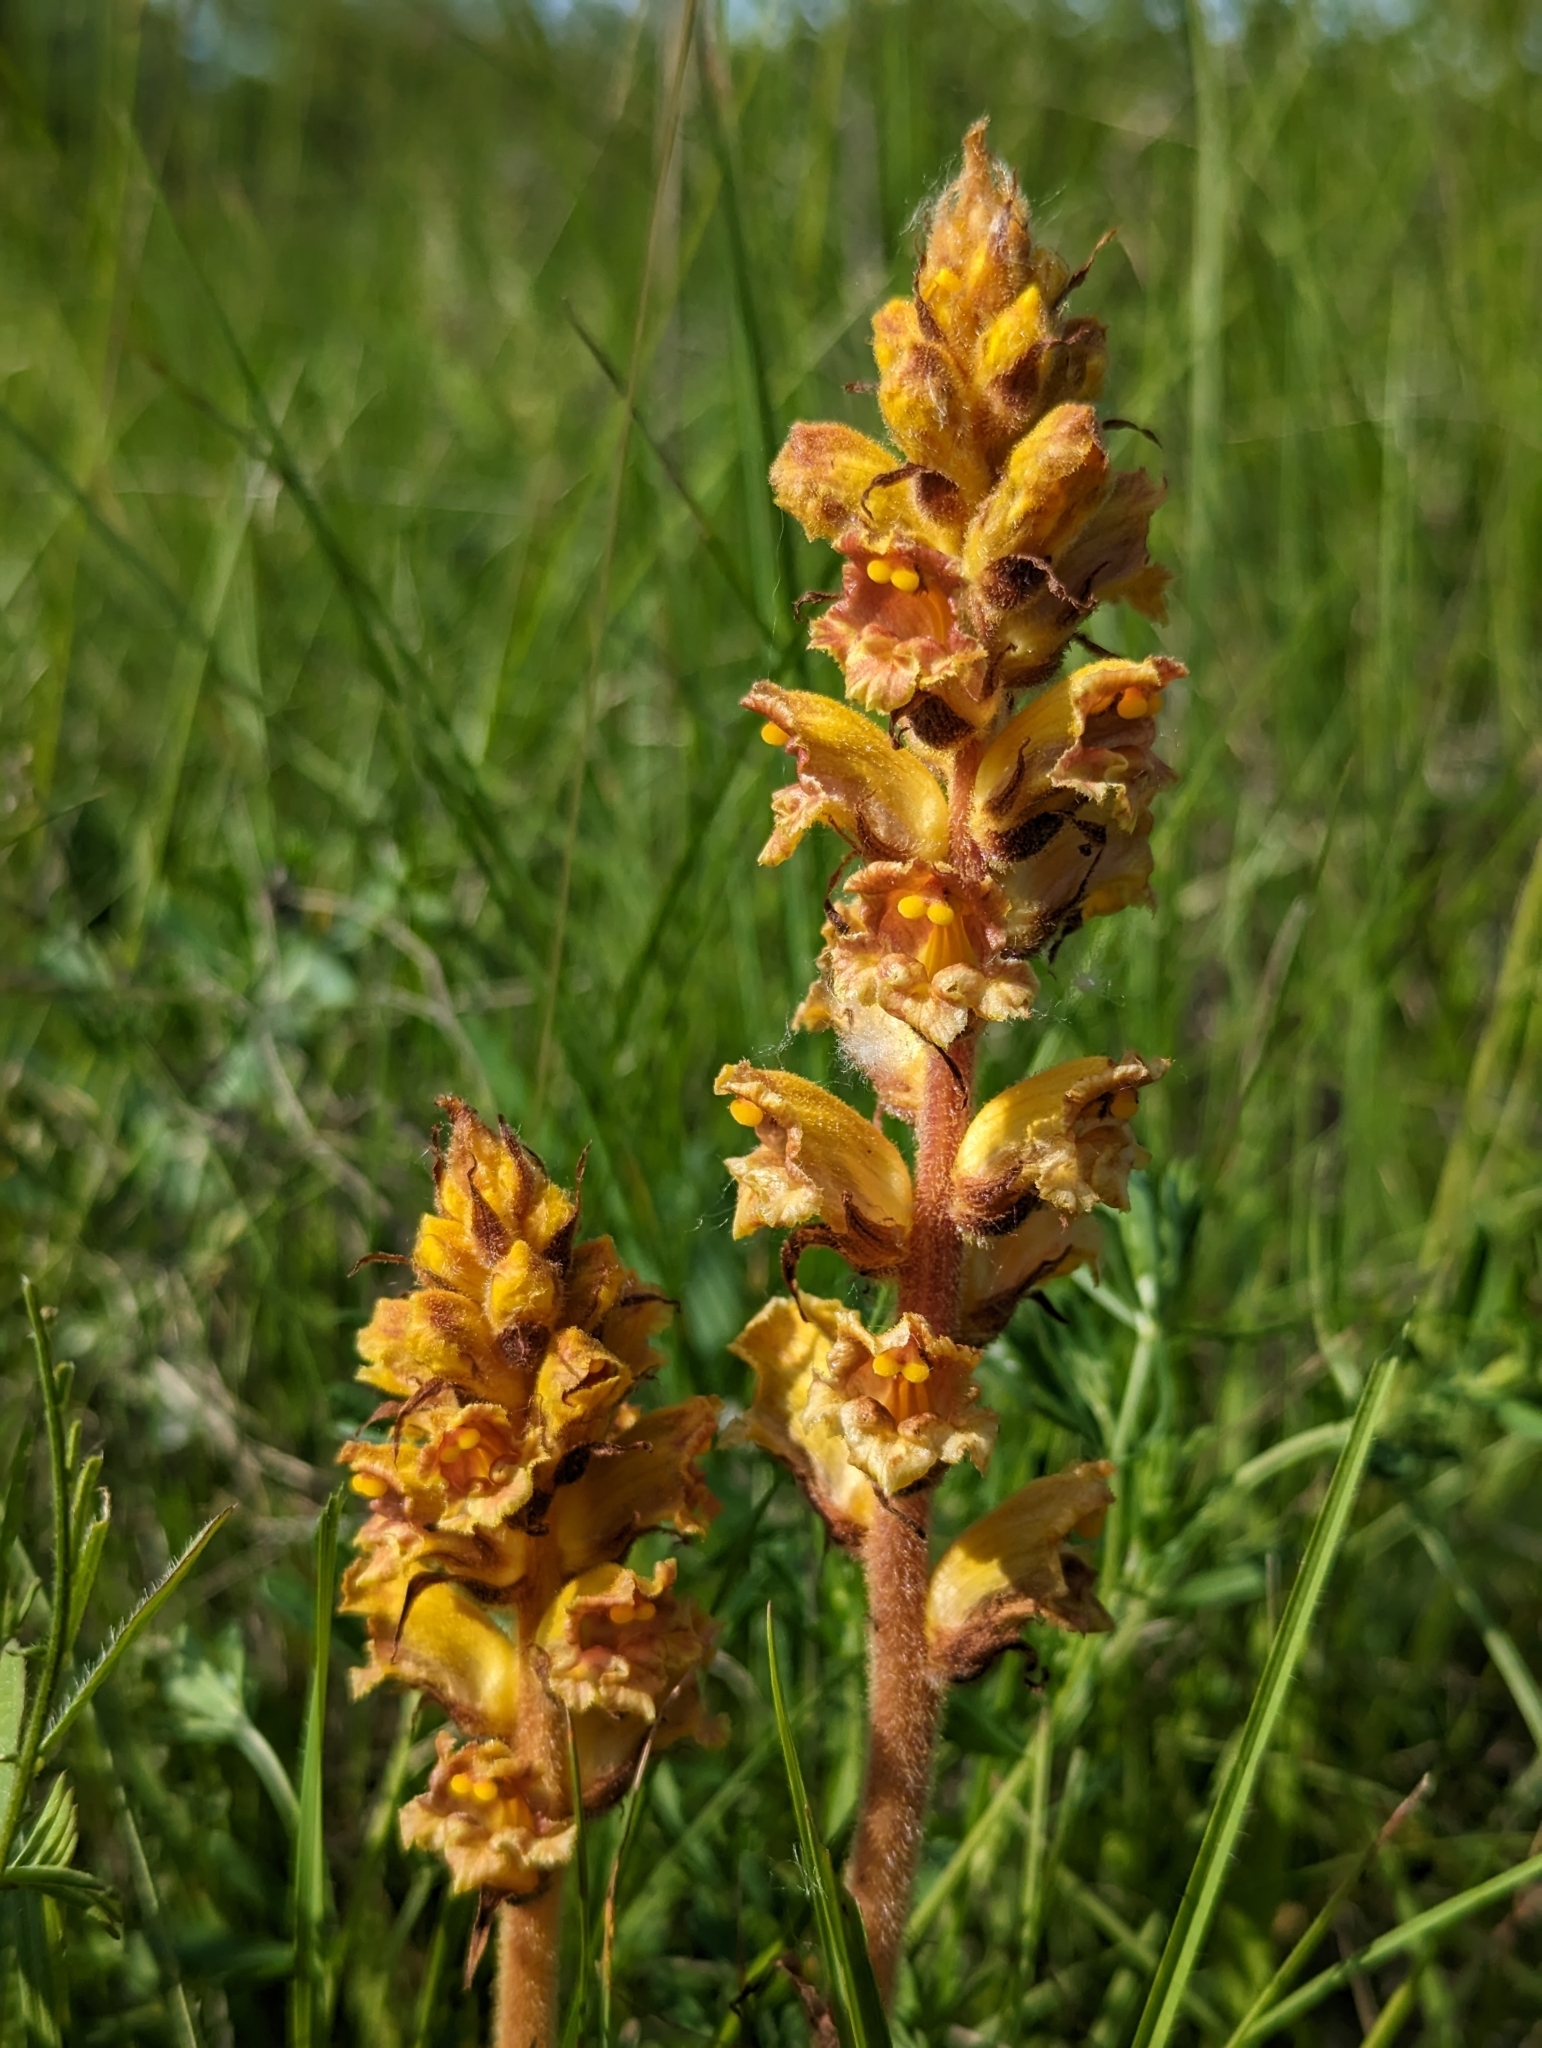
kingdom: Plantae
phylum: Tracheophyta
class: Magnoliopsida
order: Lamiales
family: Orobanchaceae
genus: Orobanche
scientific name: Orobanche gracilis
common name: Slender broomrape
